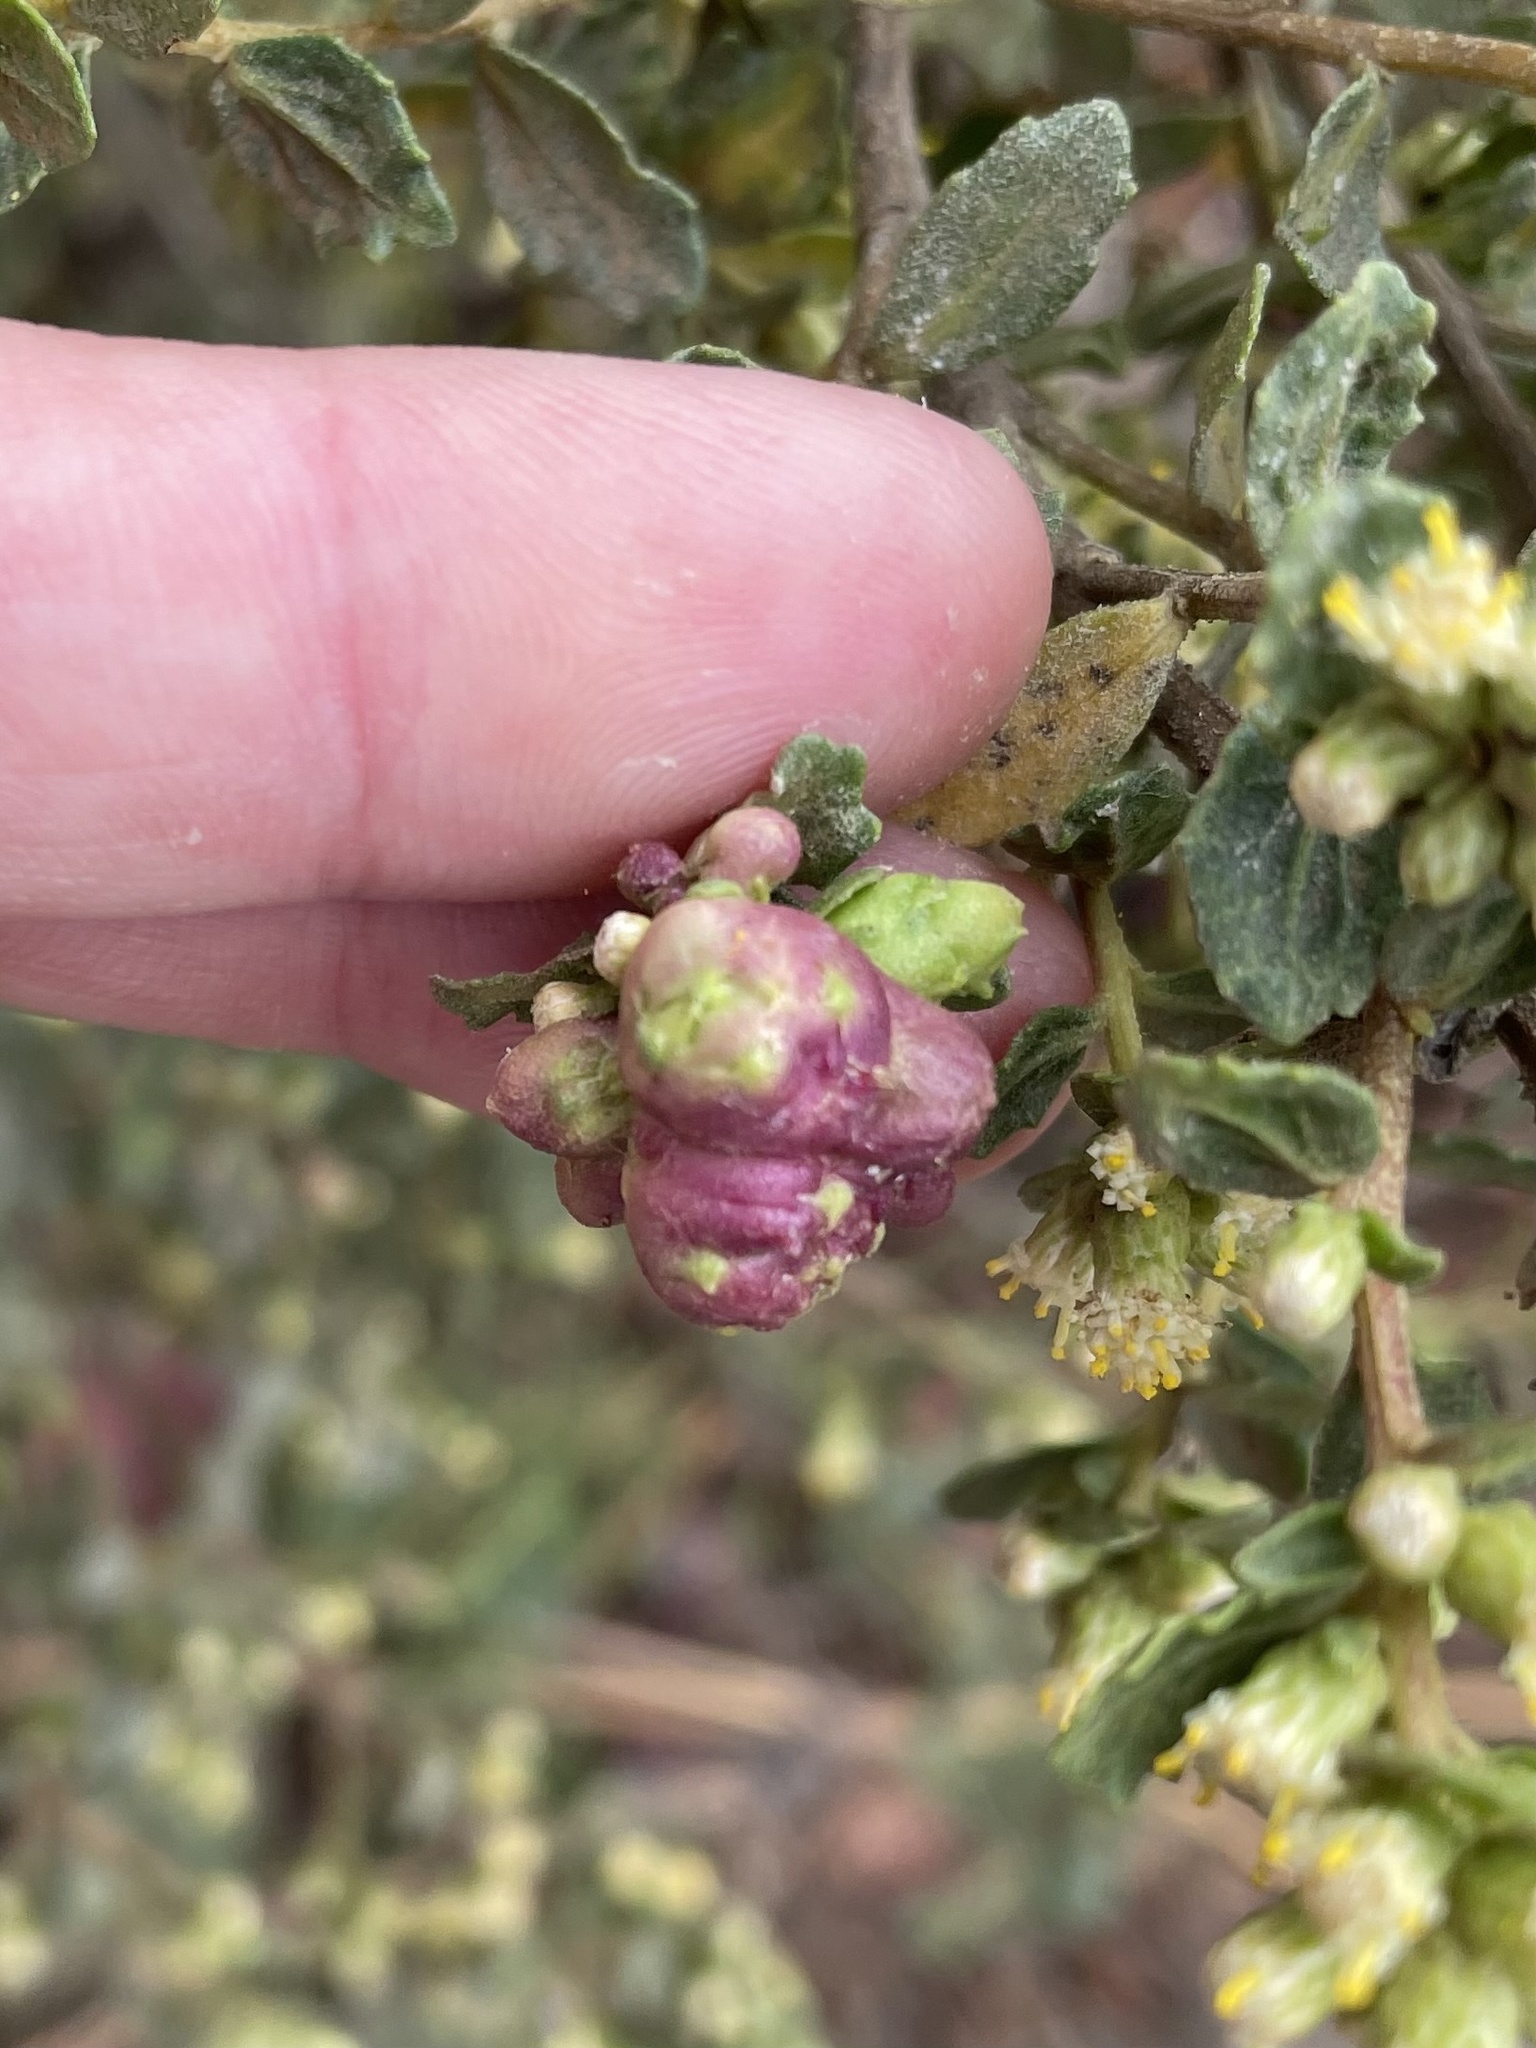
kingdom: Animalia
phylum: Arthropoda
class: Insecta
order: Diptera
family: Cecidomyiidae
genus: Rhopalomyia
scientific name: Rhopalomyia californica
